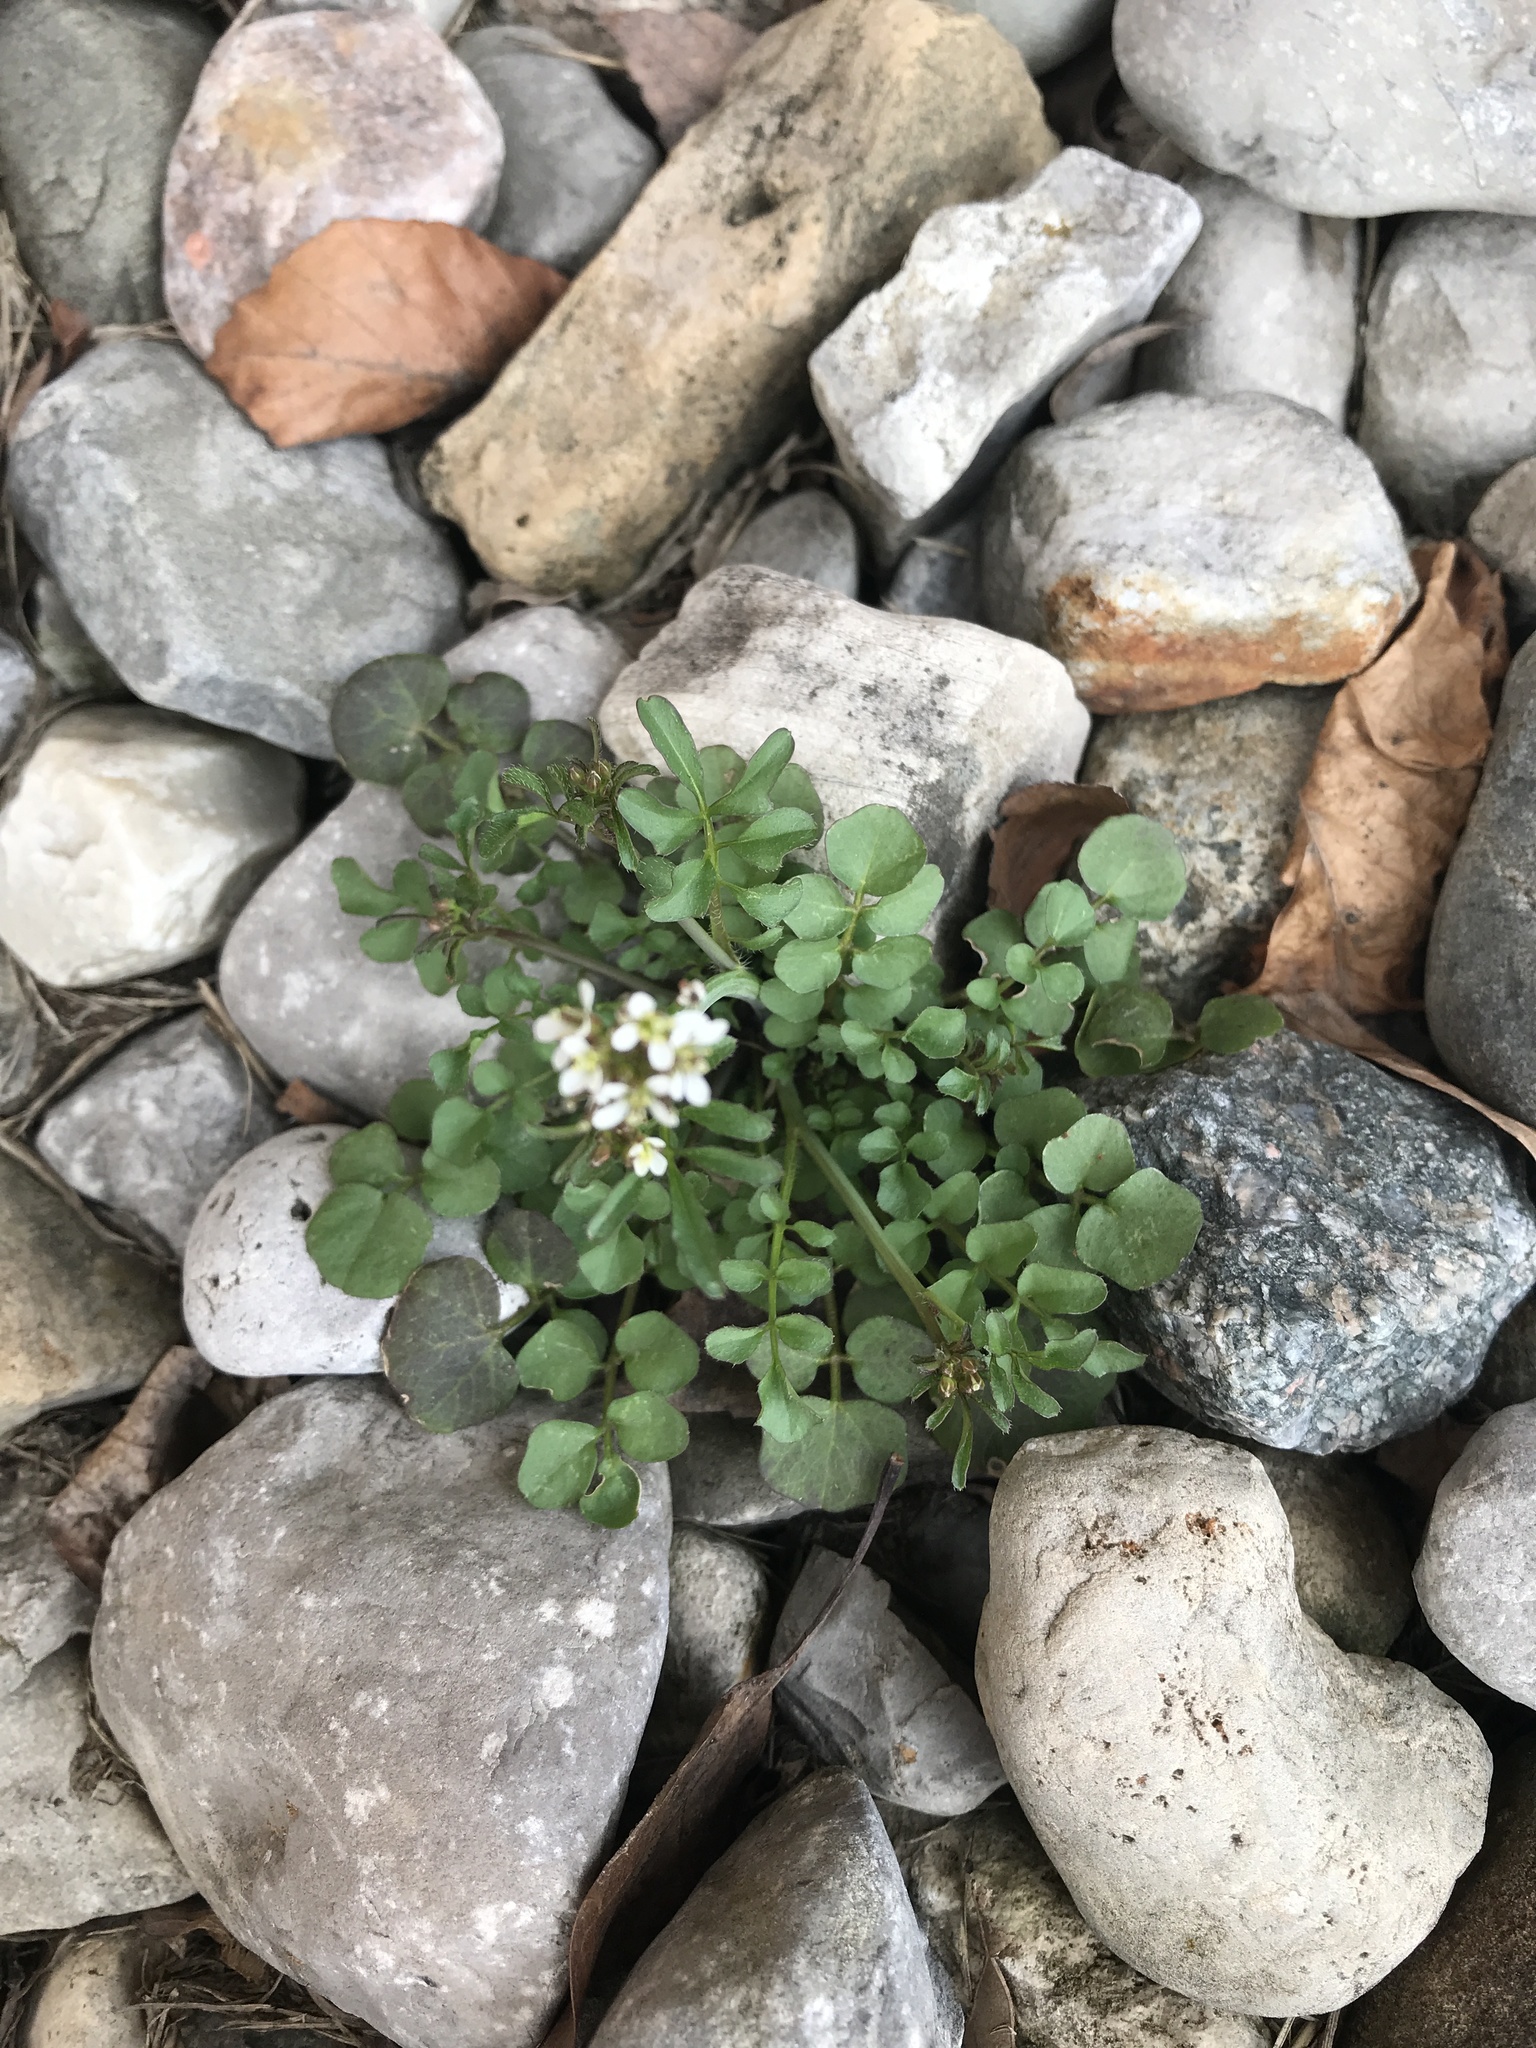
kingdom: Plantae
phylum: Tracheophyta
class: Magnoliopsida
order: Brassicales
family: Brassicaceae
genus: Cardamine
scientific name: Cardamine hirsuta
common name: Hairy bittercress
